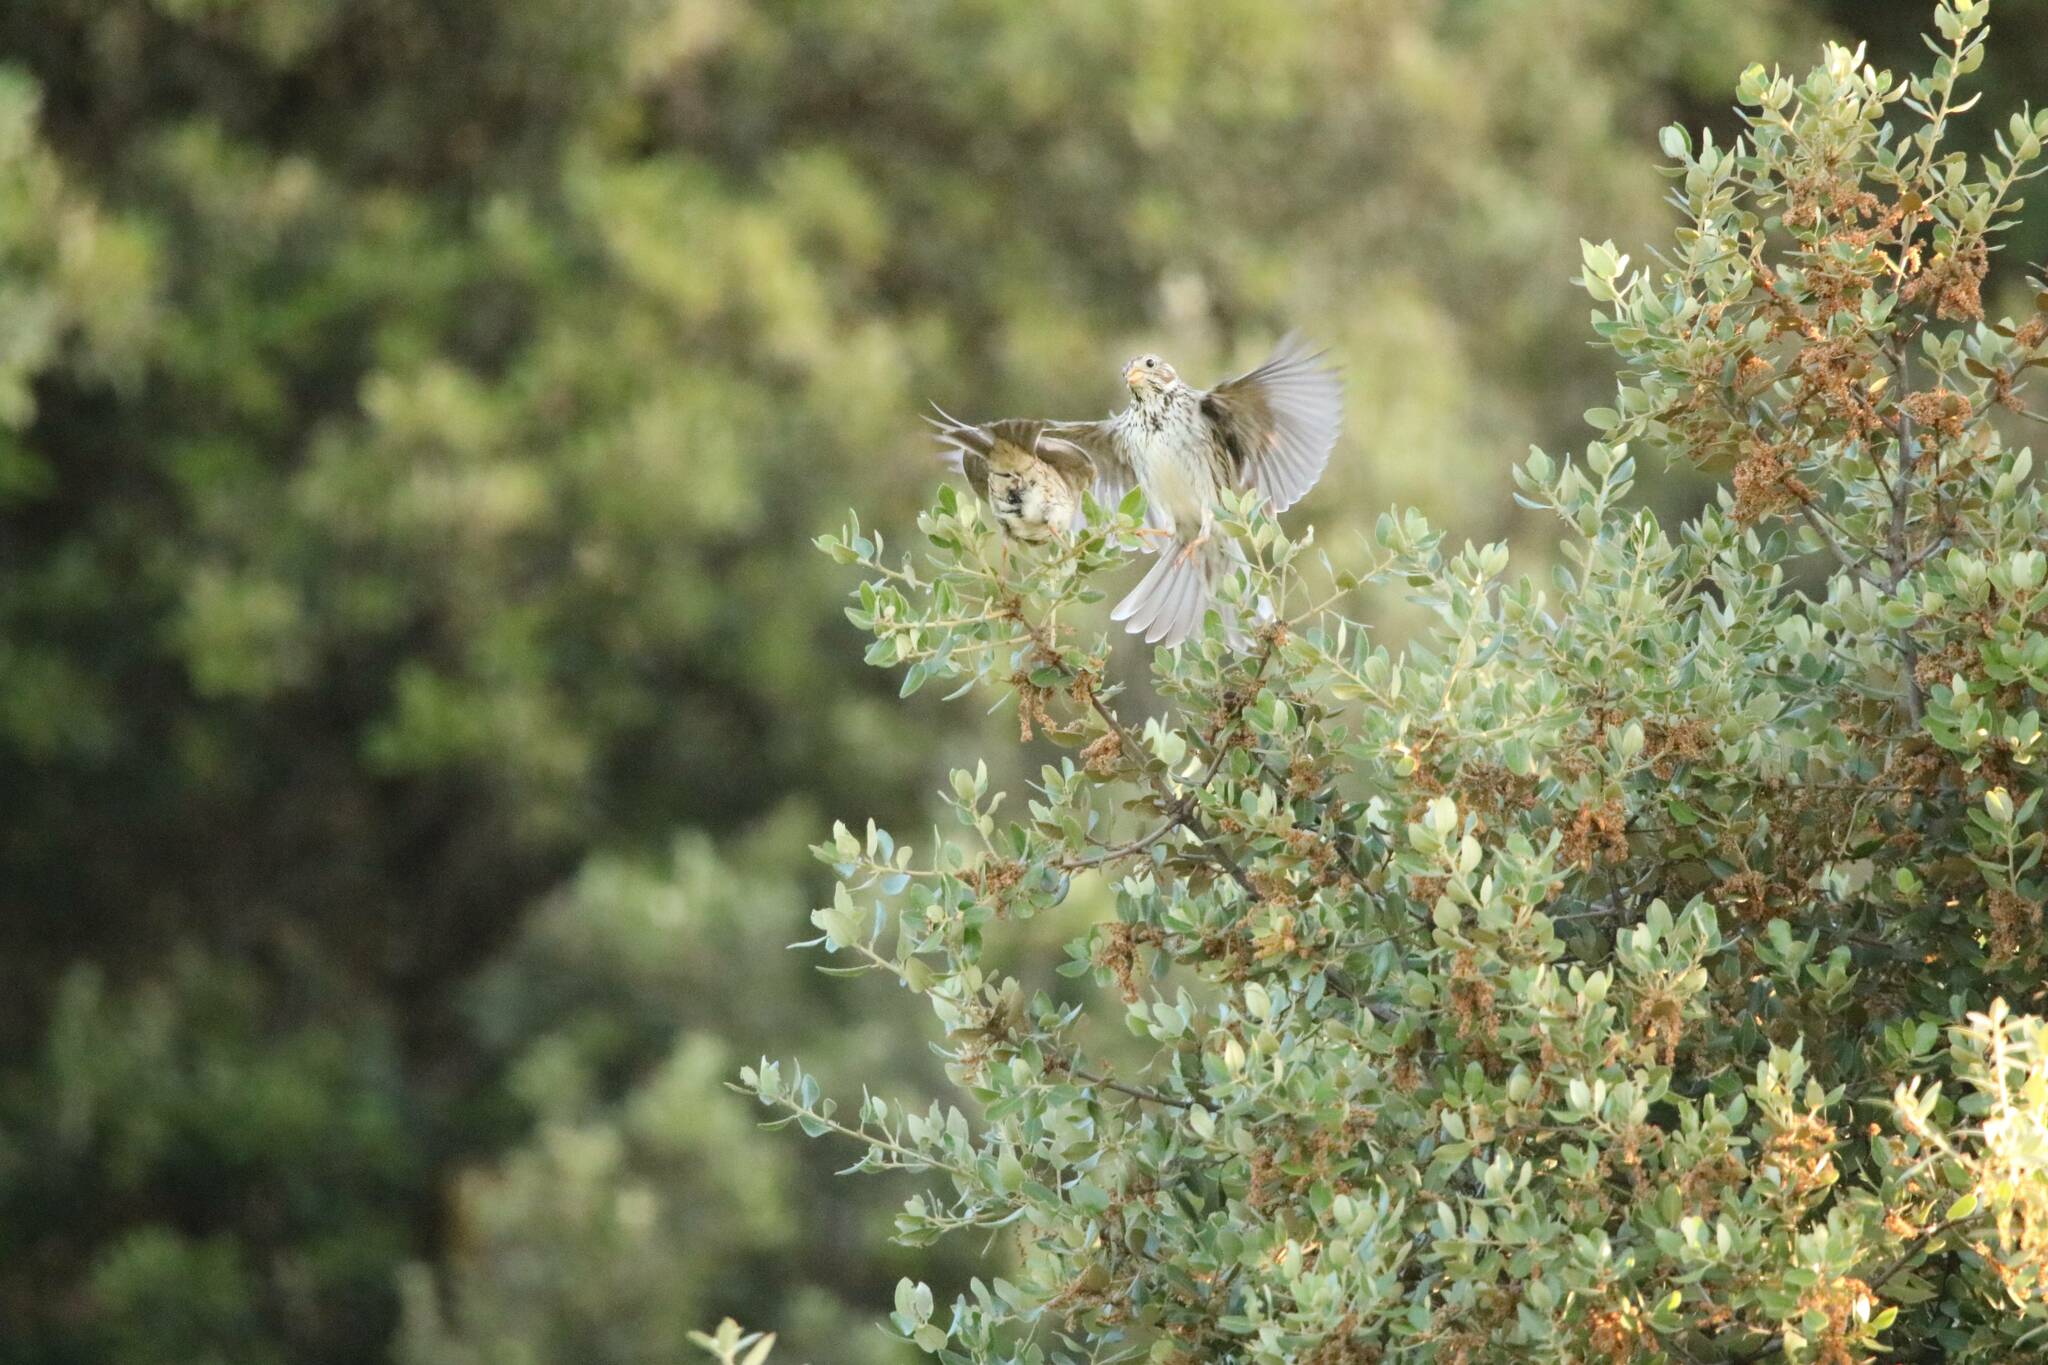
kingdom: Animalia
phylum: Chordata
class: Aves
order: Passeriformes
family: Emberizidae
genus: Emberiza
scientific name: Emberiza calandra
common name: Corn bunting
